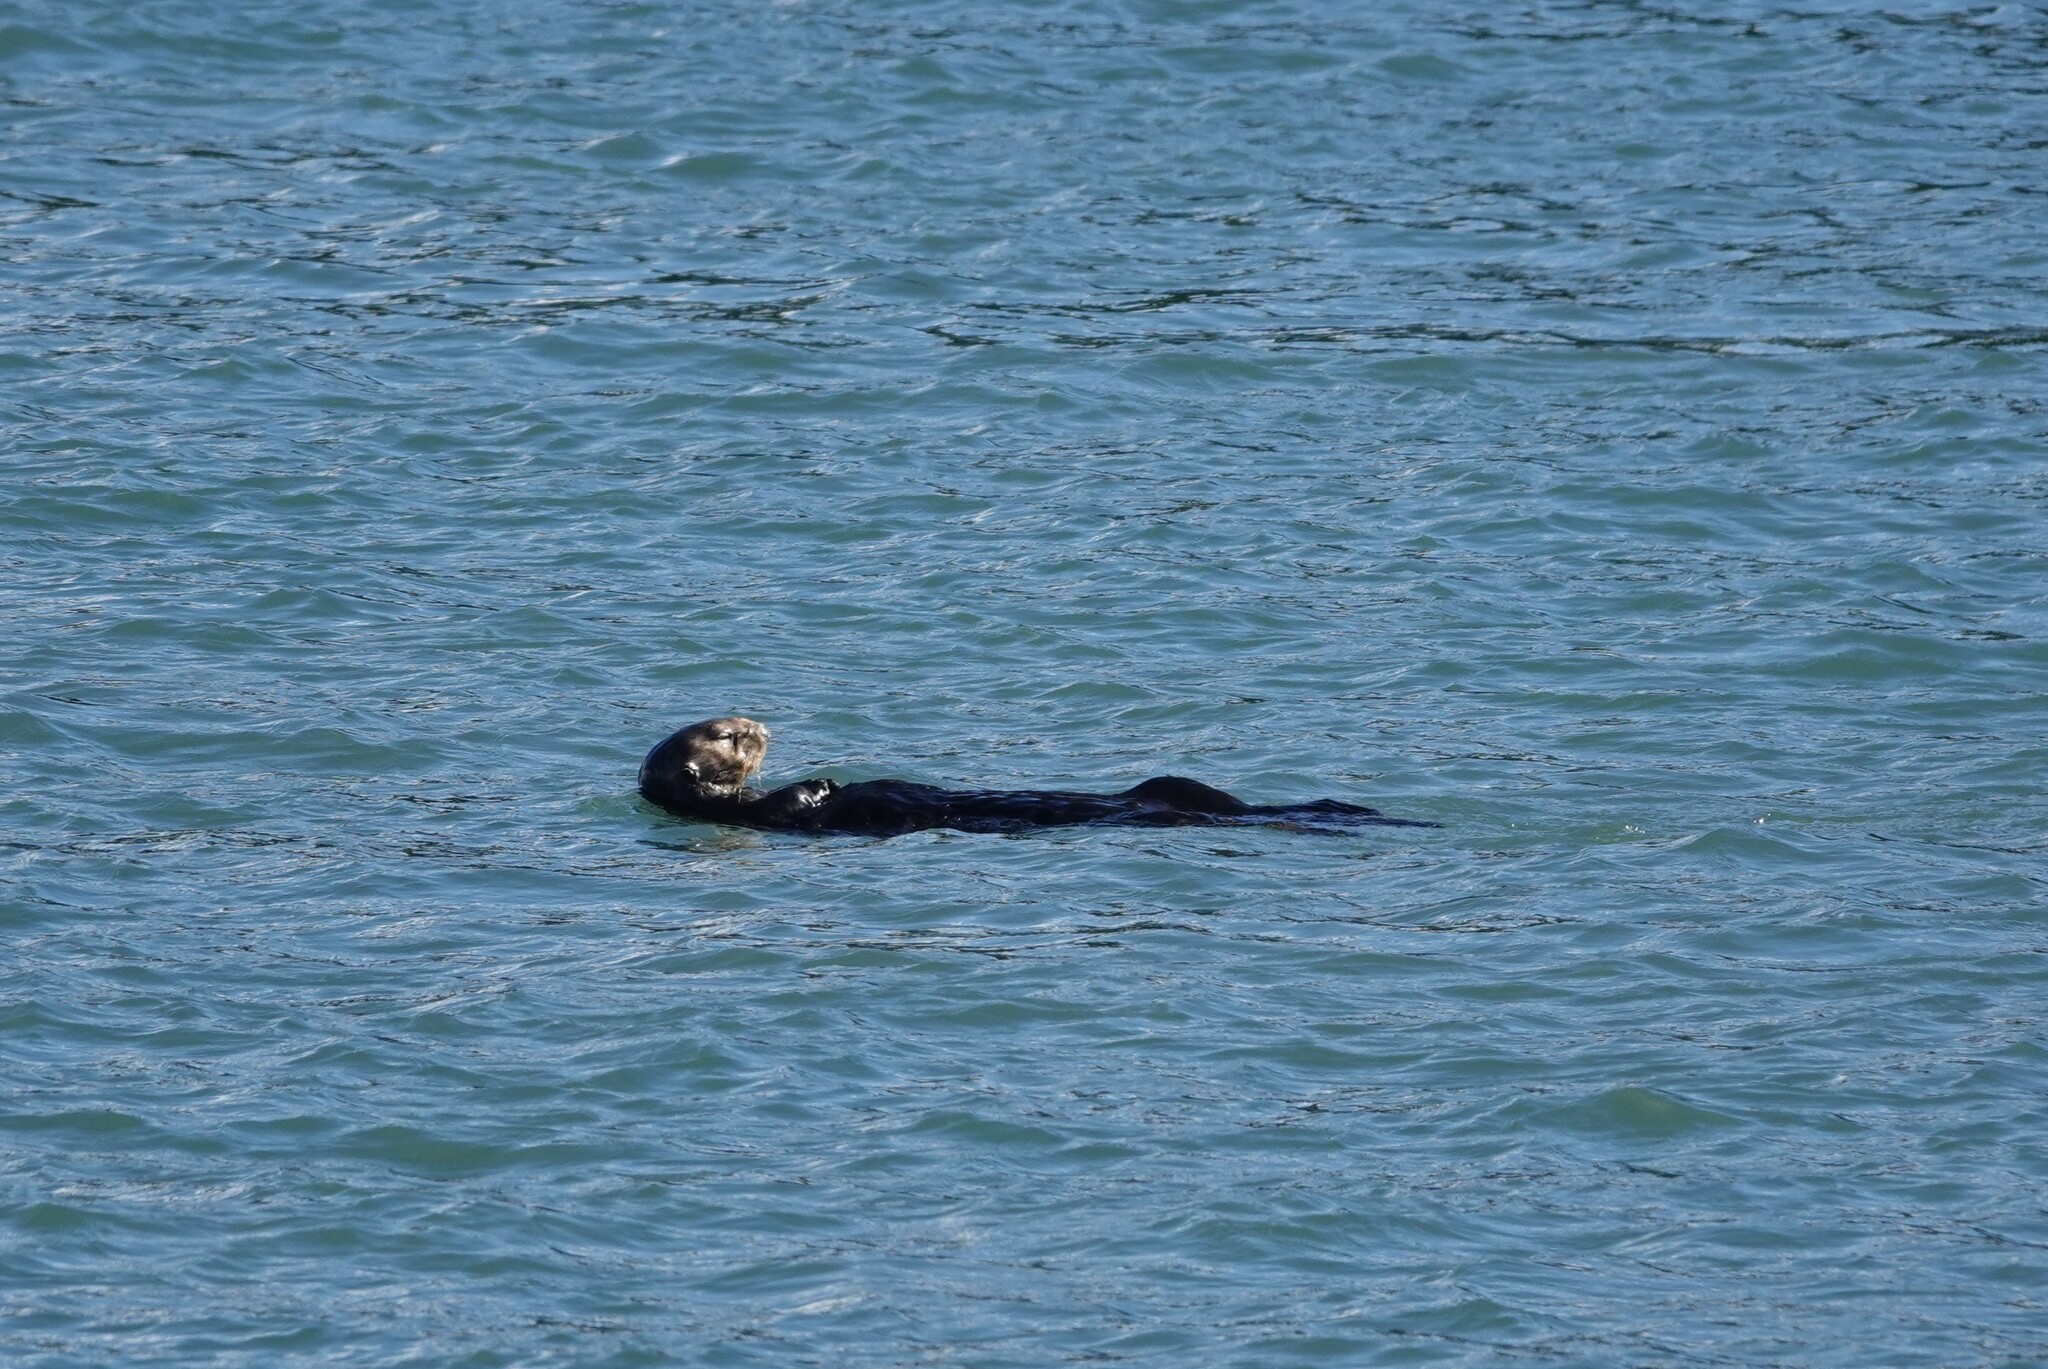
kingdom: Animalia
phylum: Chordata
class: Mammalia
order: Carnivora
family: Mustelidae
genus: Enhydra
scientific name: Enhydra lutris
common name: Sea otter
